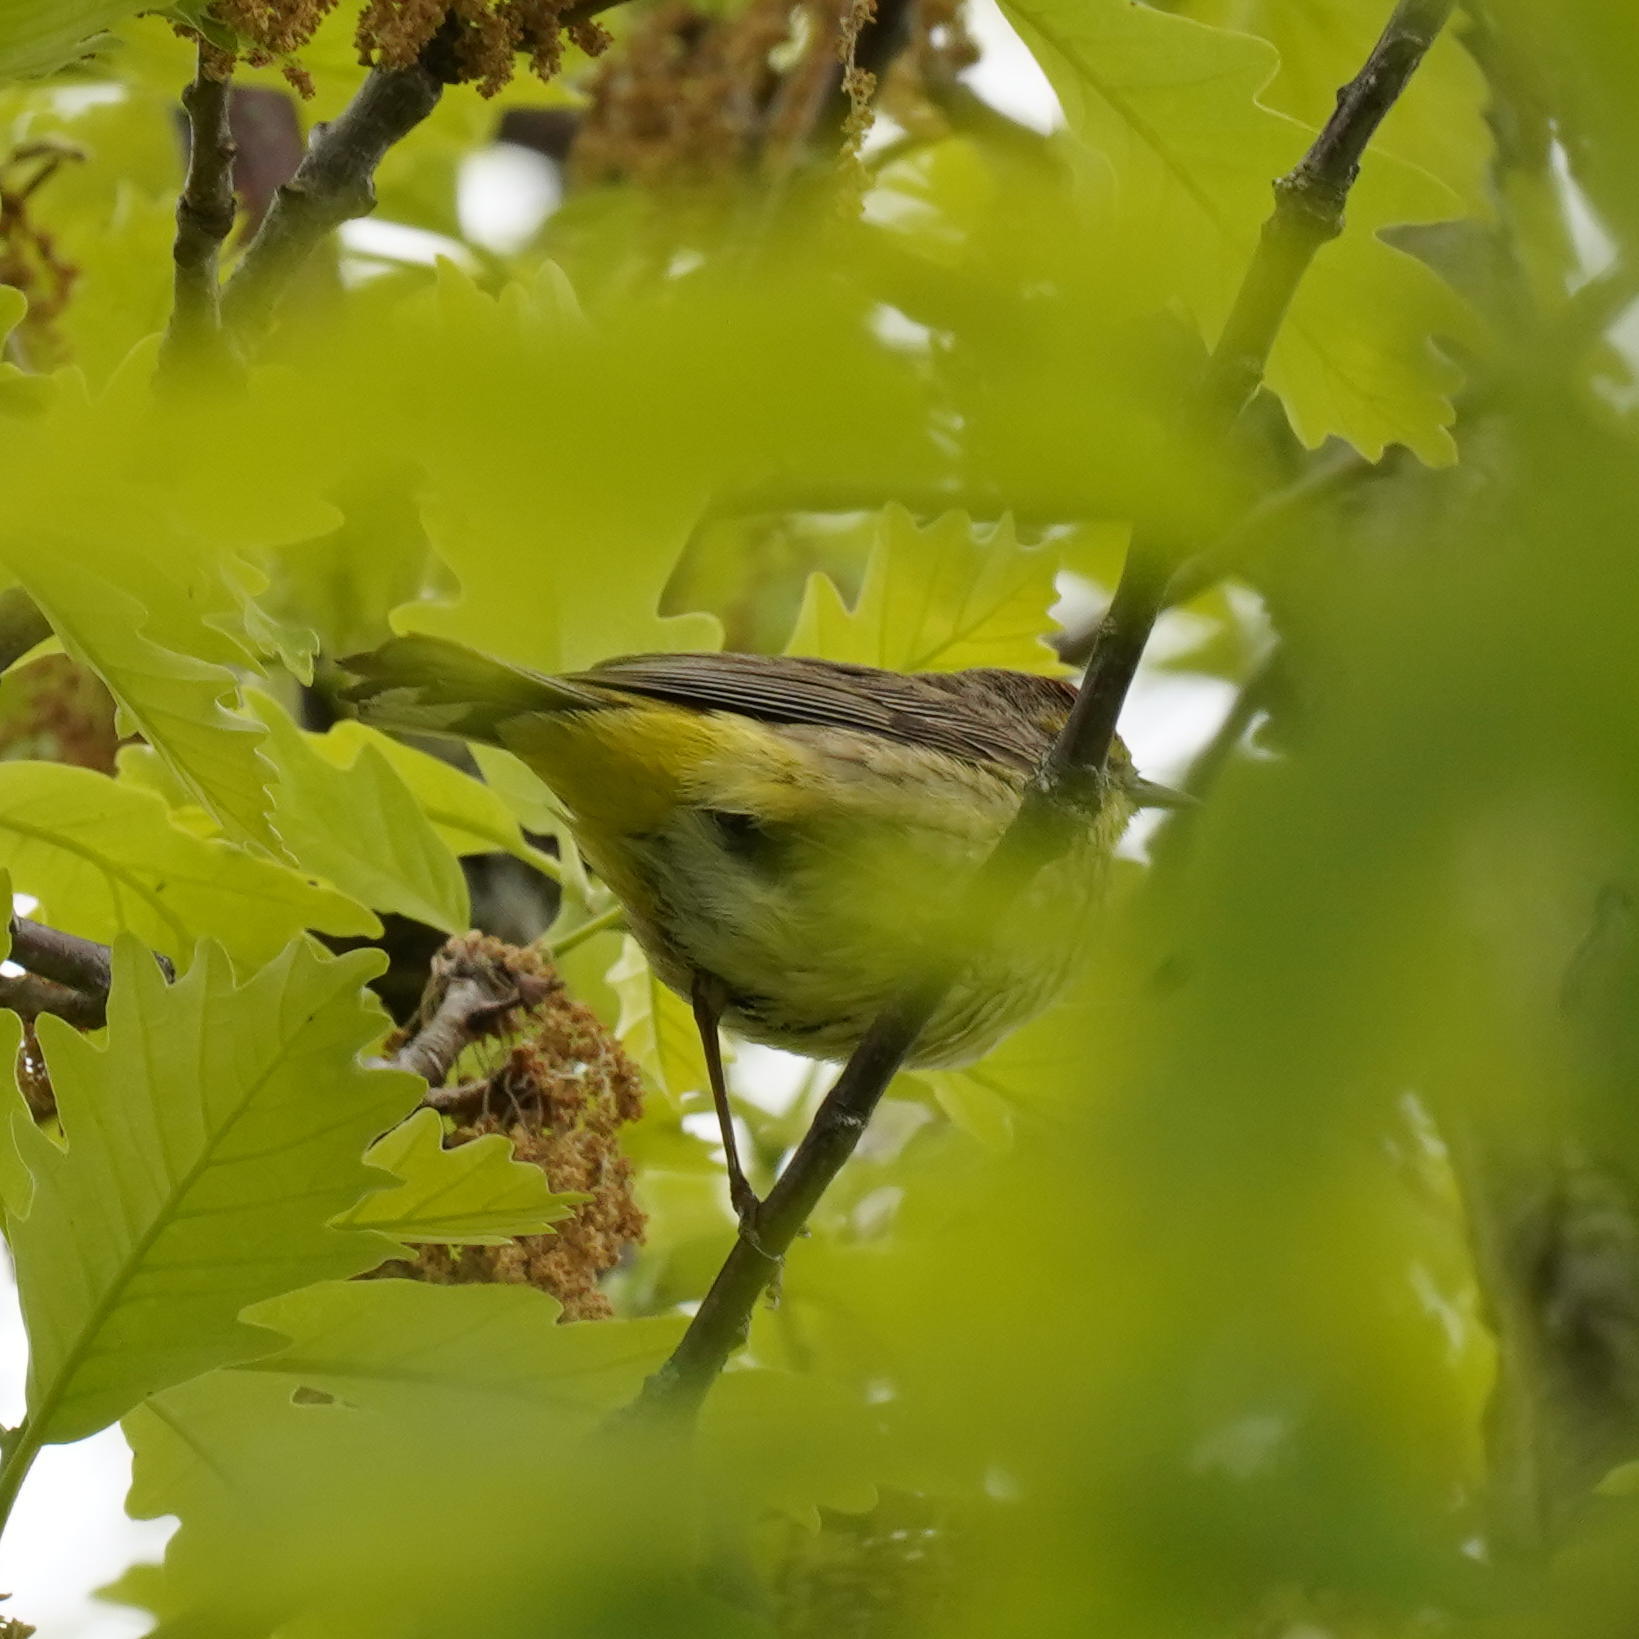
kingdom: Animalia
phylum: Chordata
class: Aves
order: Passeriformes
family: Parulidae
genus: Setophaga
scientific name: Setophaga palmarum
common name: Palm warbler
